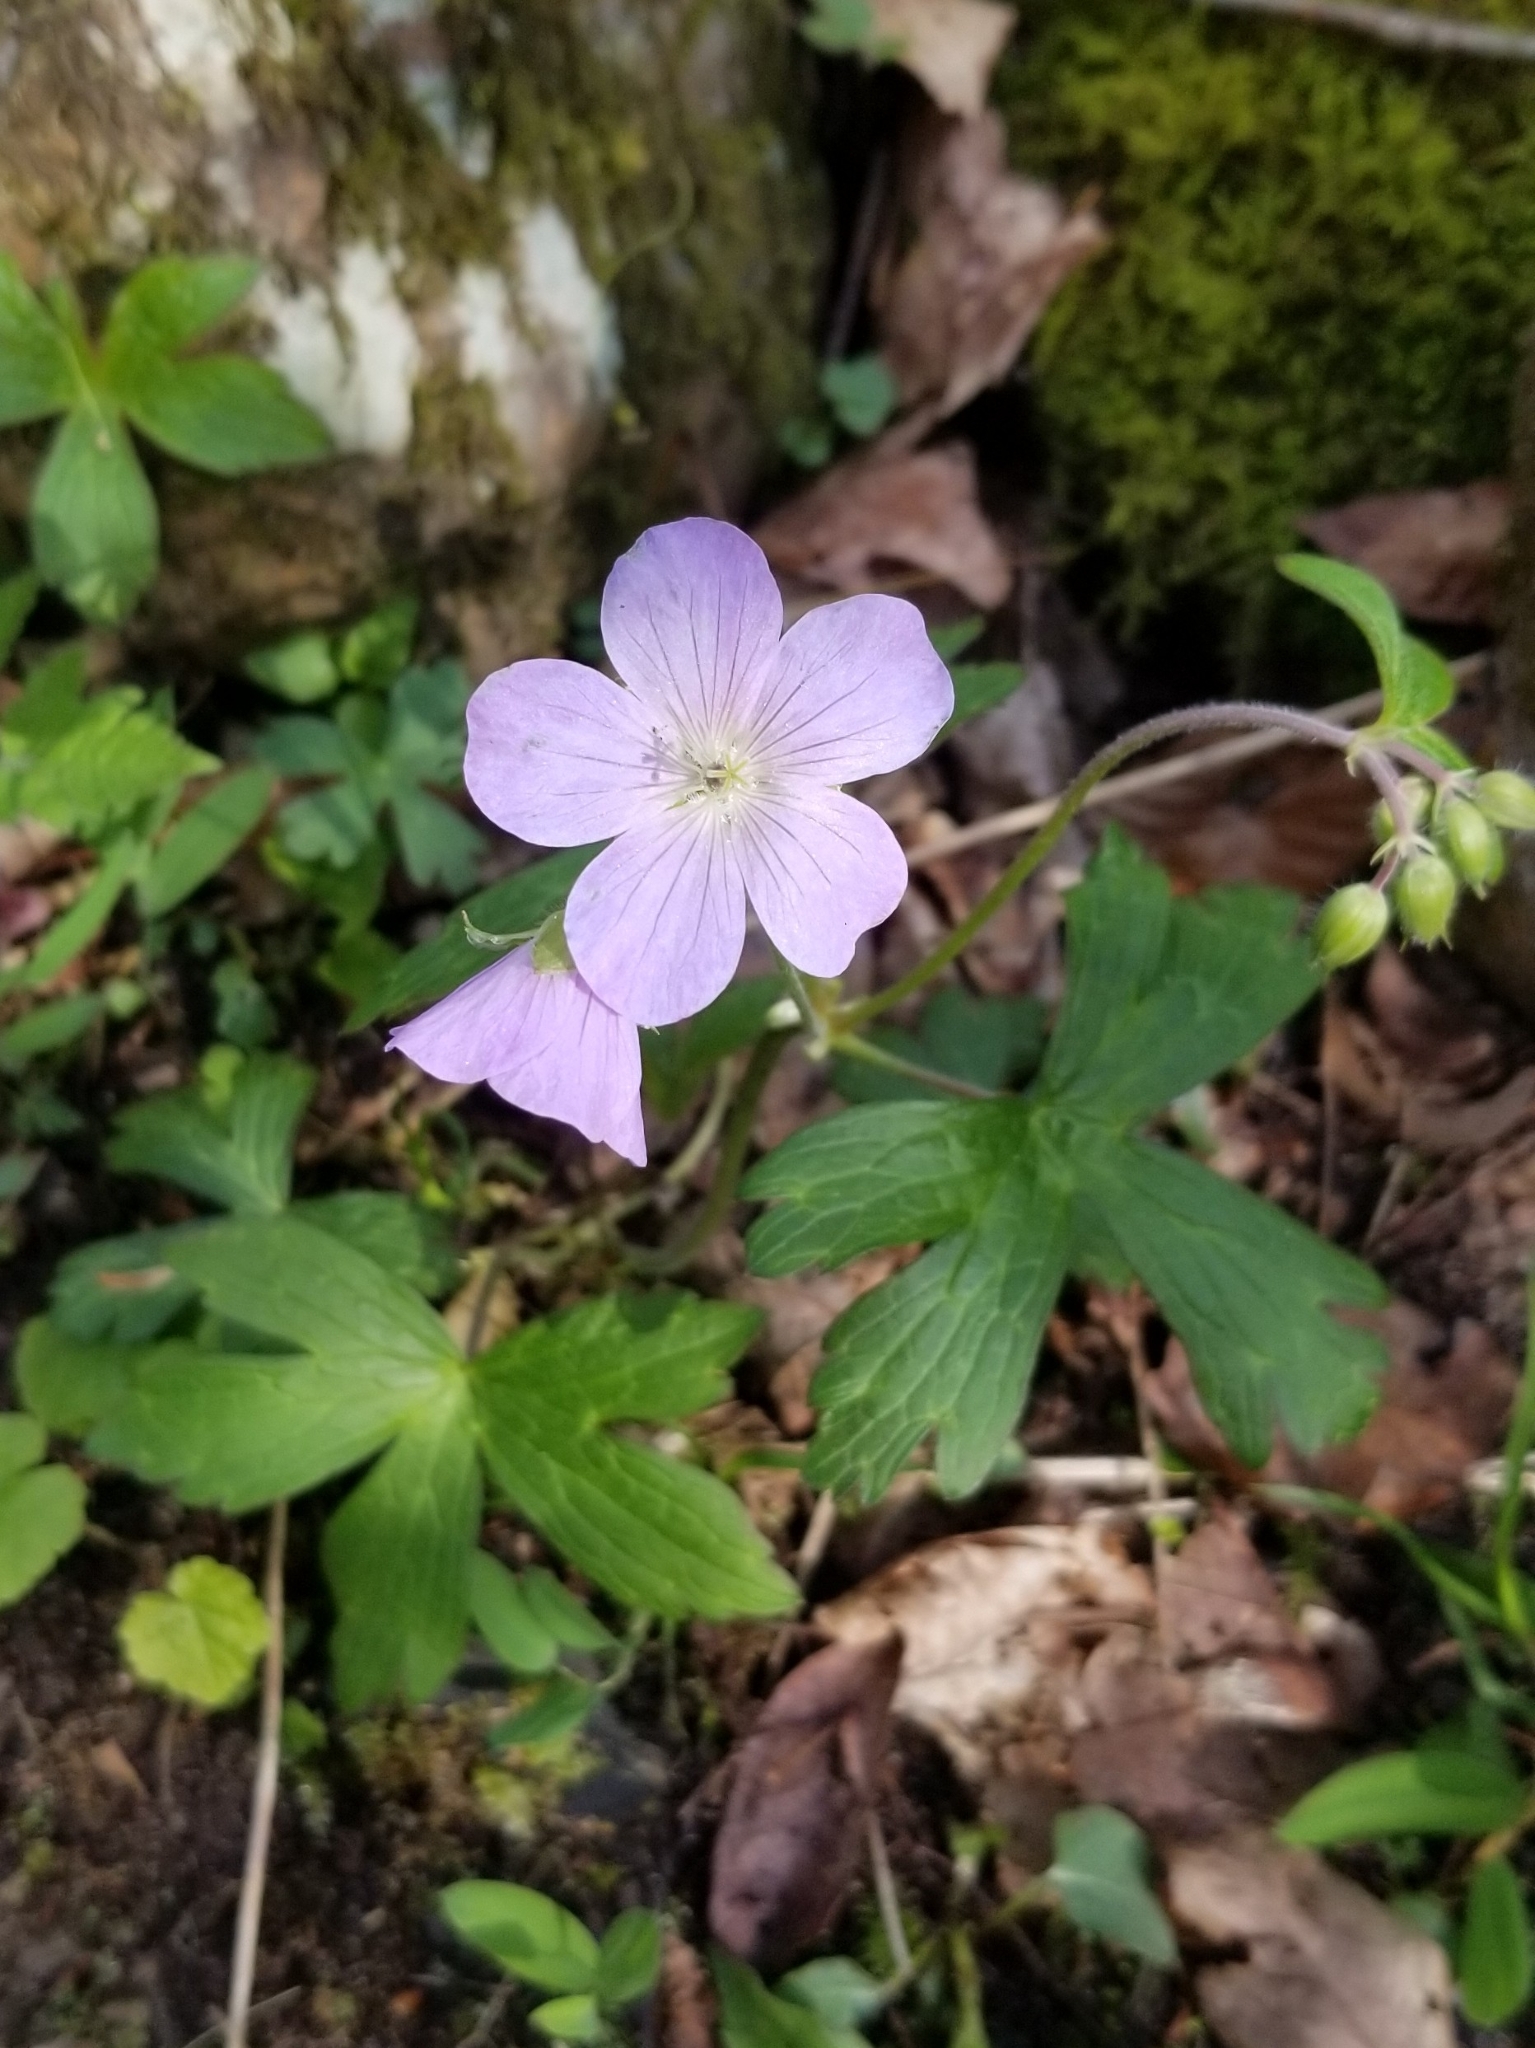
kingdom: Plantae
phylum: Tracheophyta
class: Magnoliopsida
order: Geraniales
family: Geraniaceae
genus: Geranium
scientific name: Geranium maculatum
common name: Spotted geranium
